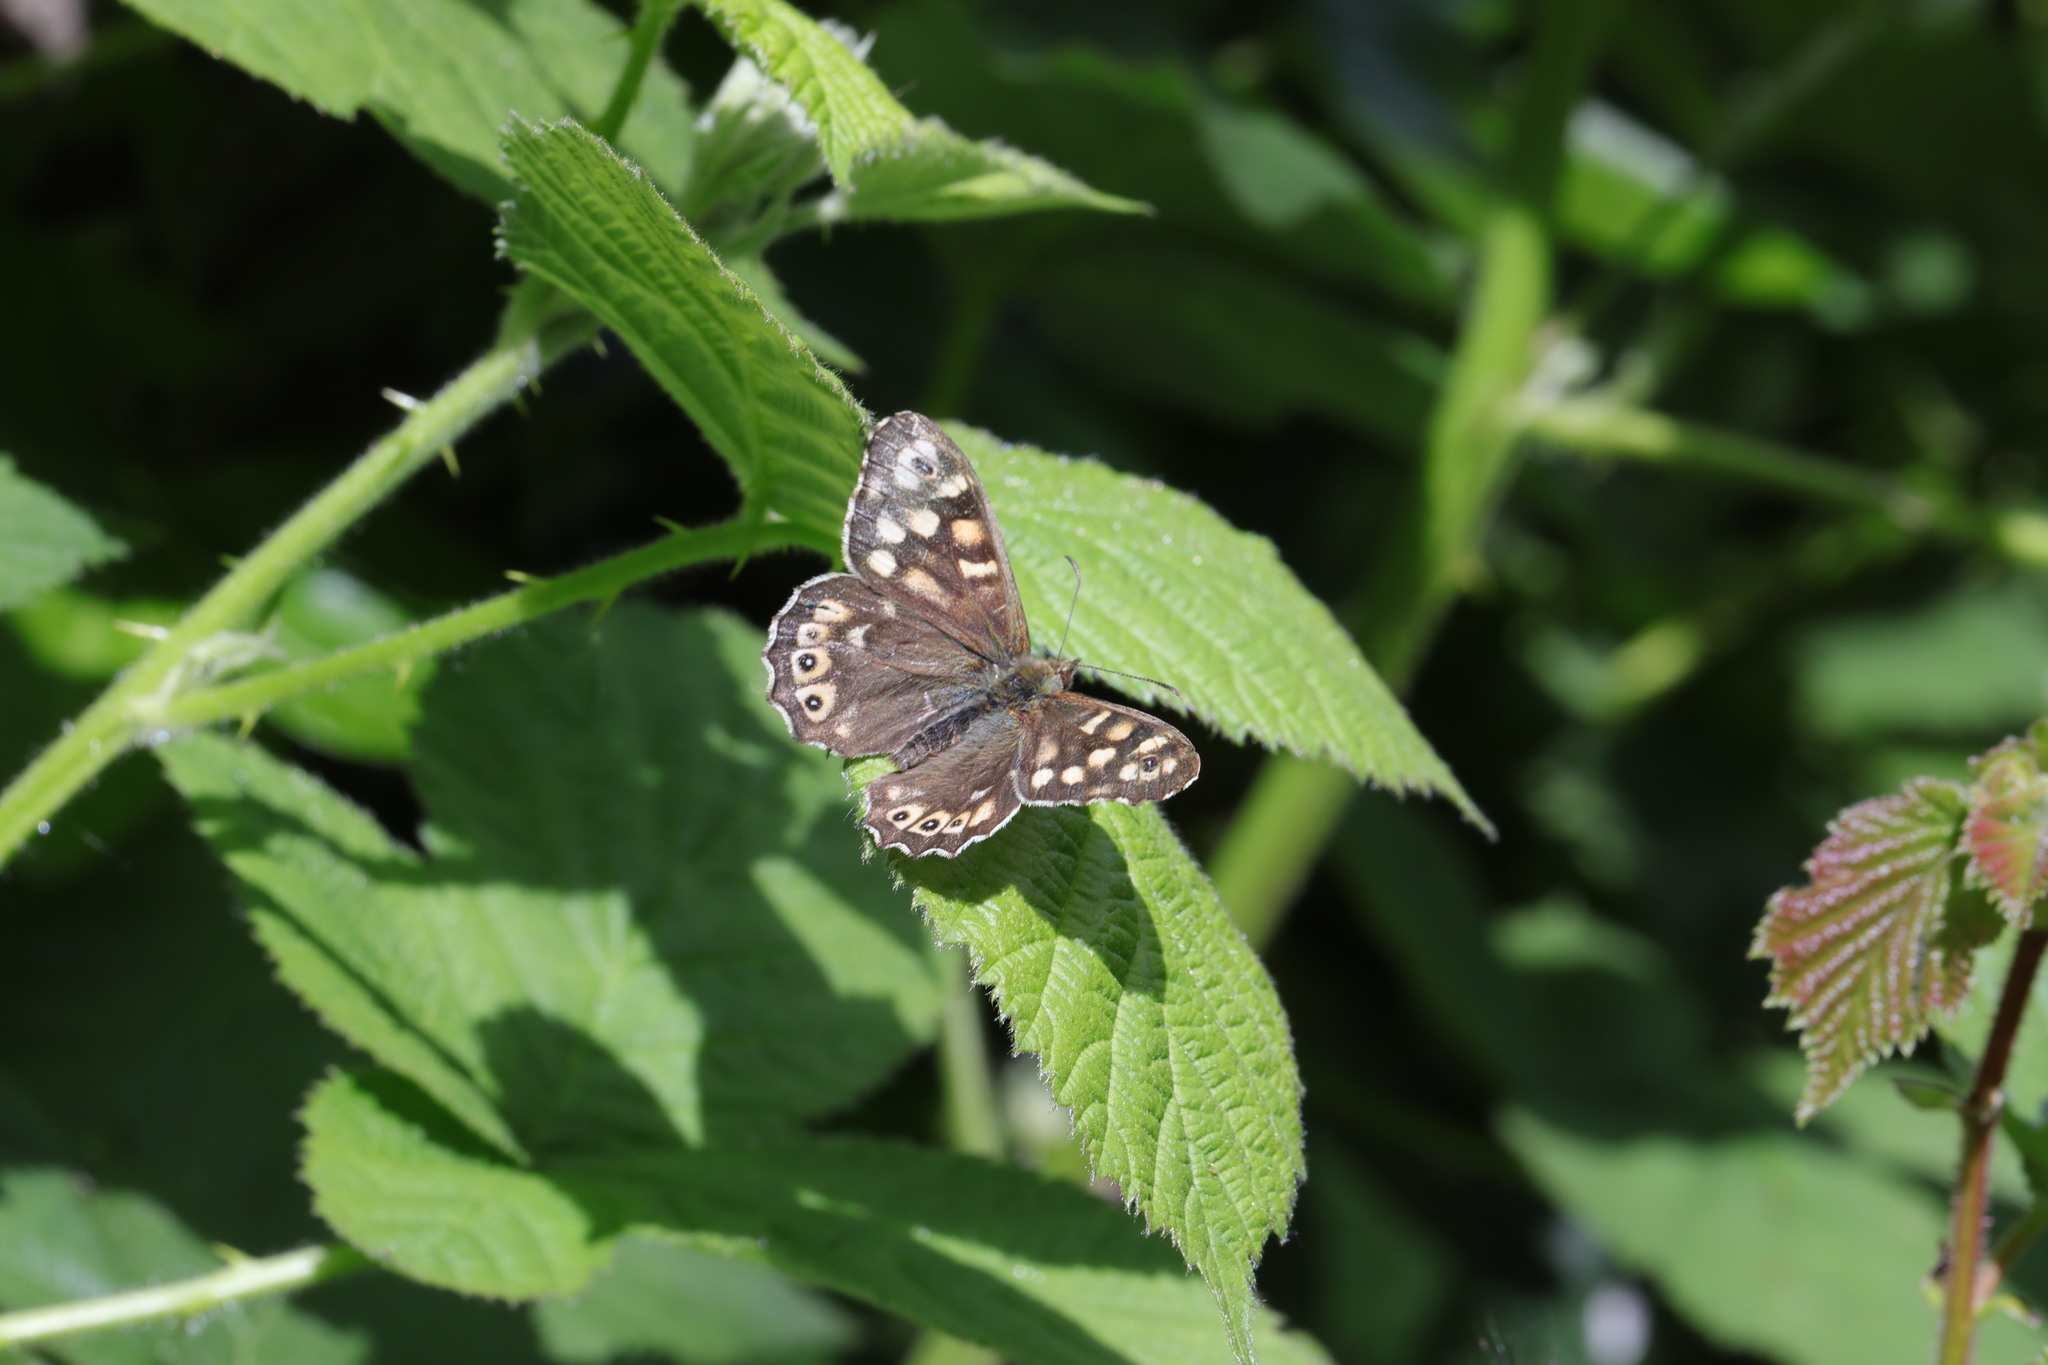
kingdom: Animalia
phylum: Arthropoda
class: Insecta
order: Lepidoptera
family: Nymphalidae
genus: Pararge
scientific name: Pararge aegeria
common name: Speckled wood
